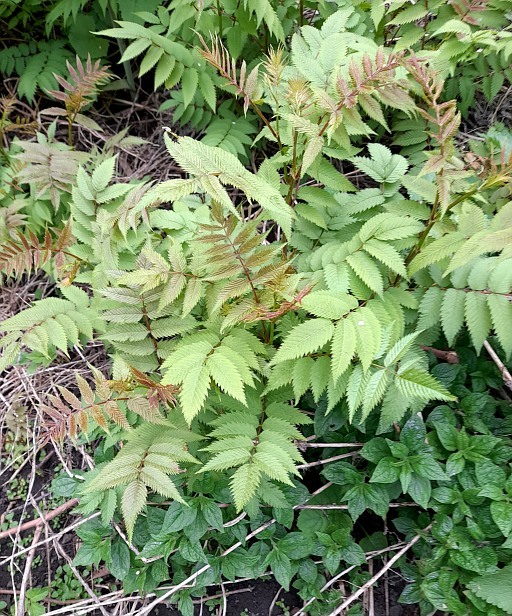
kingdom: Plantae
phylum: Tracheophyta
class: Magnoliopsida
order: Rosales
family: Rosaceae
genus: Sorbaria
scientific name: Sorbaria sorbifolia
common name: False spiraea
